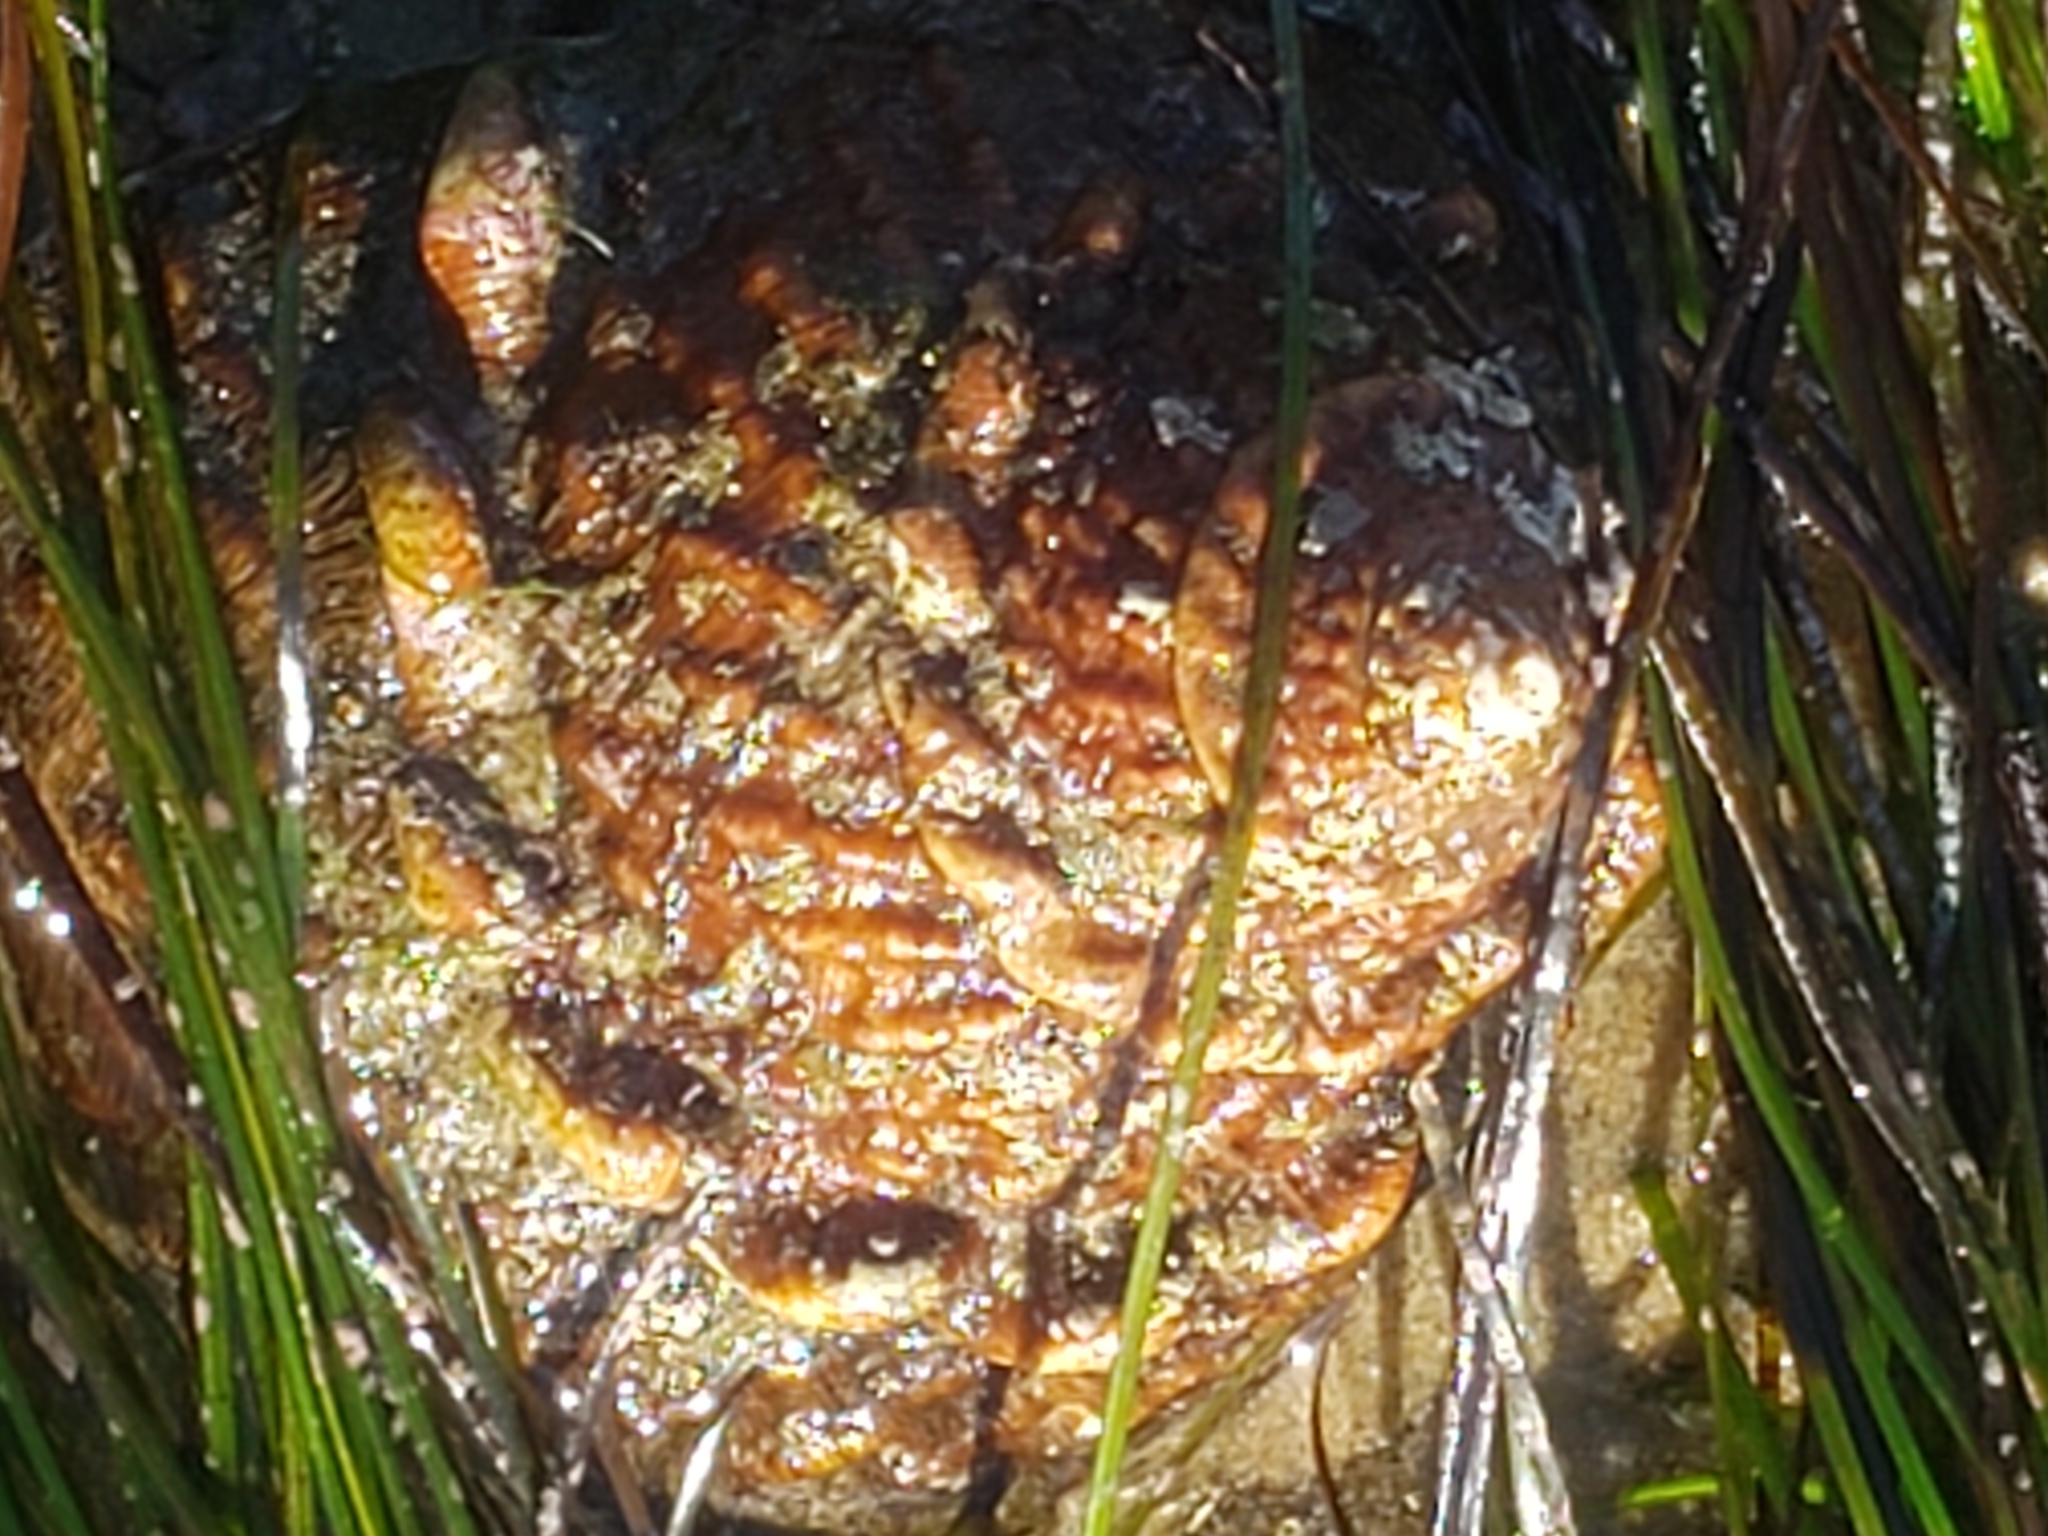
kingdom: Animalia
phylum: Mollusca
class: Gastropoda
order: Trochida
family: Turbinidae
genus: Megastraea
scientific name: Megastraea undosa
